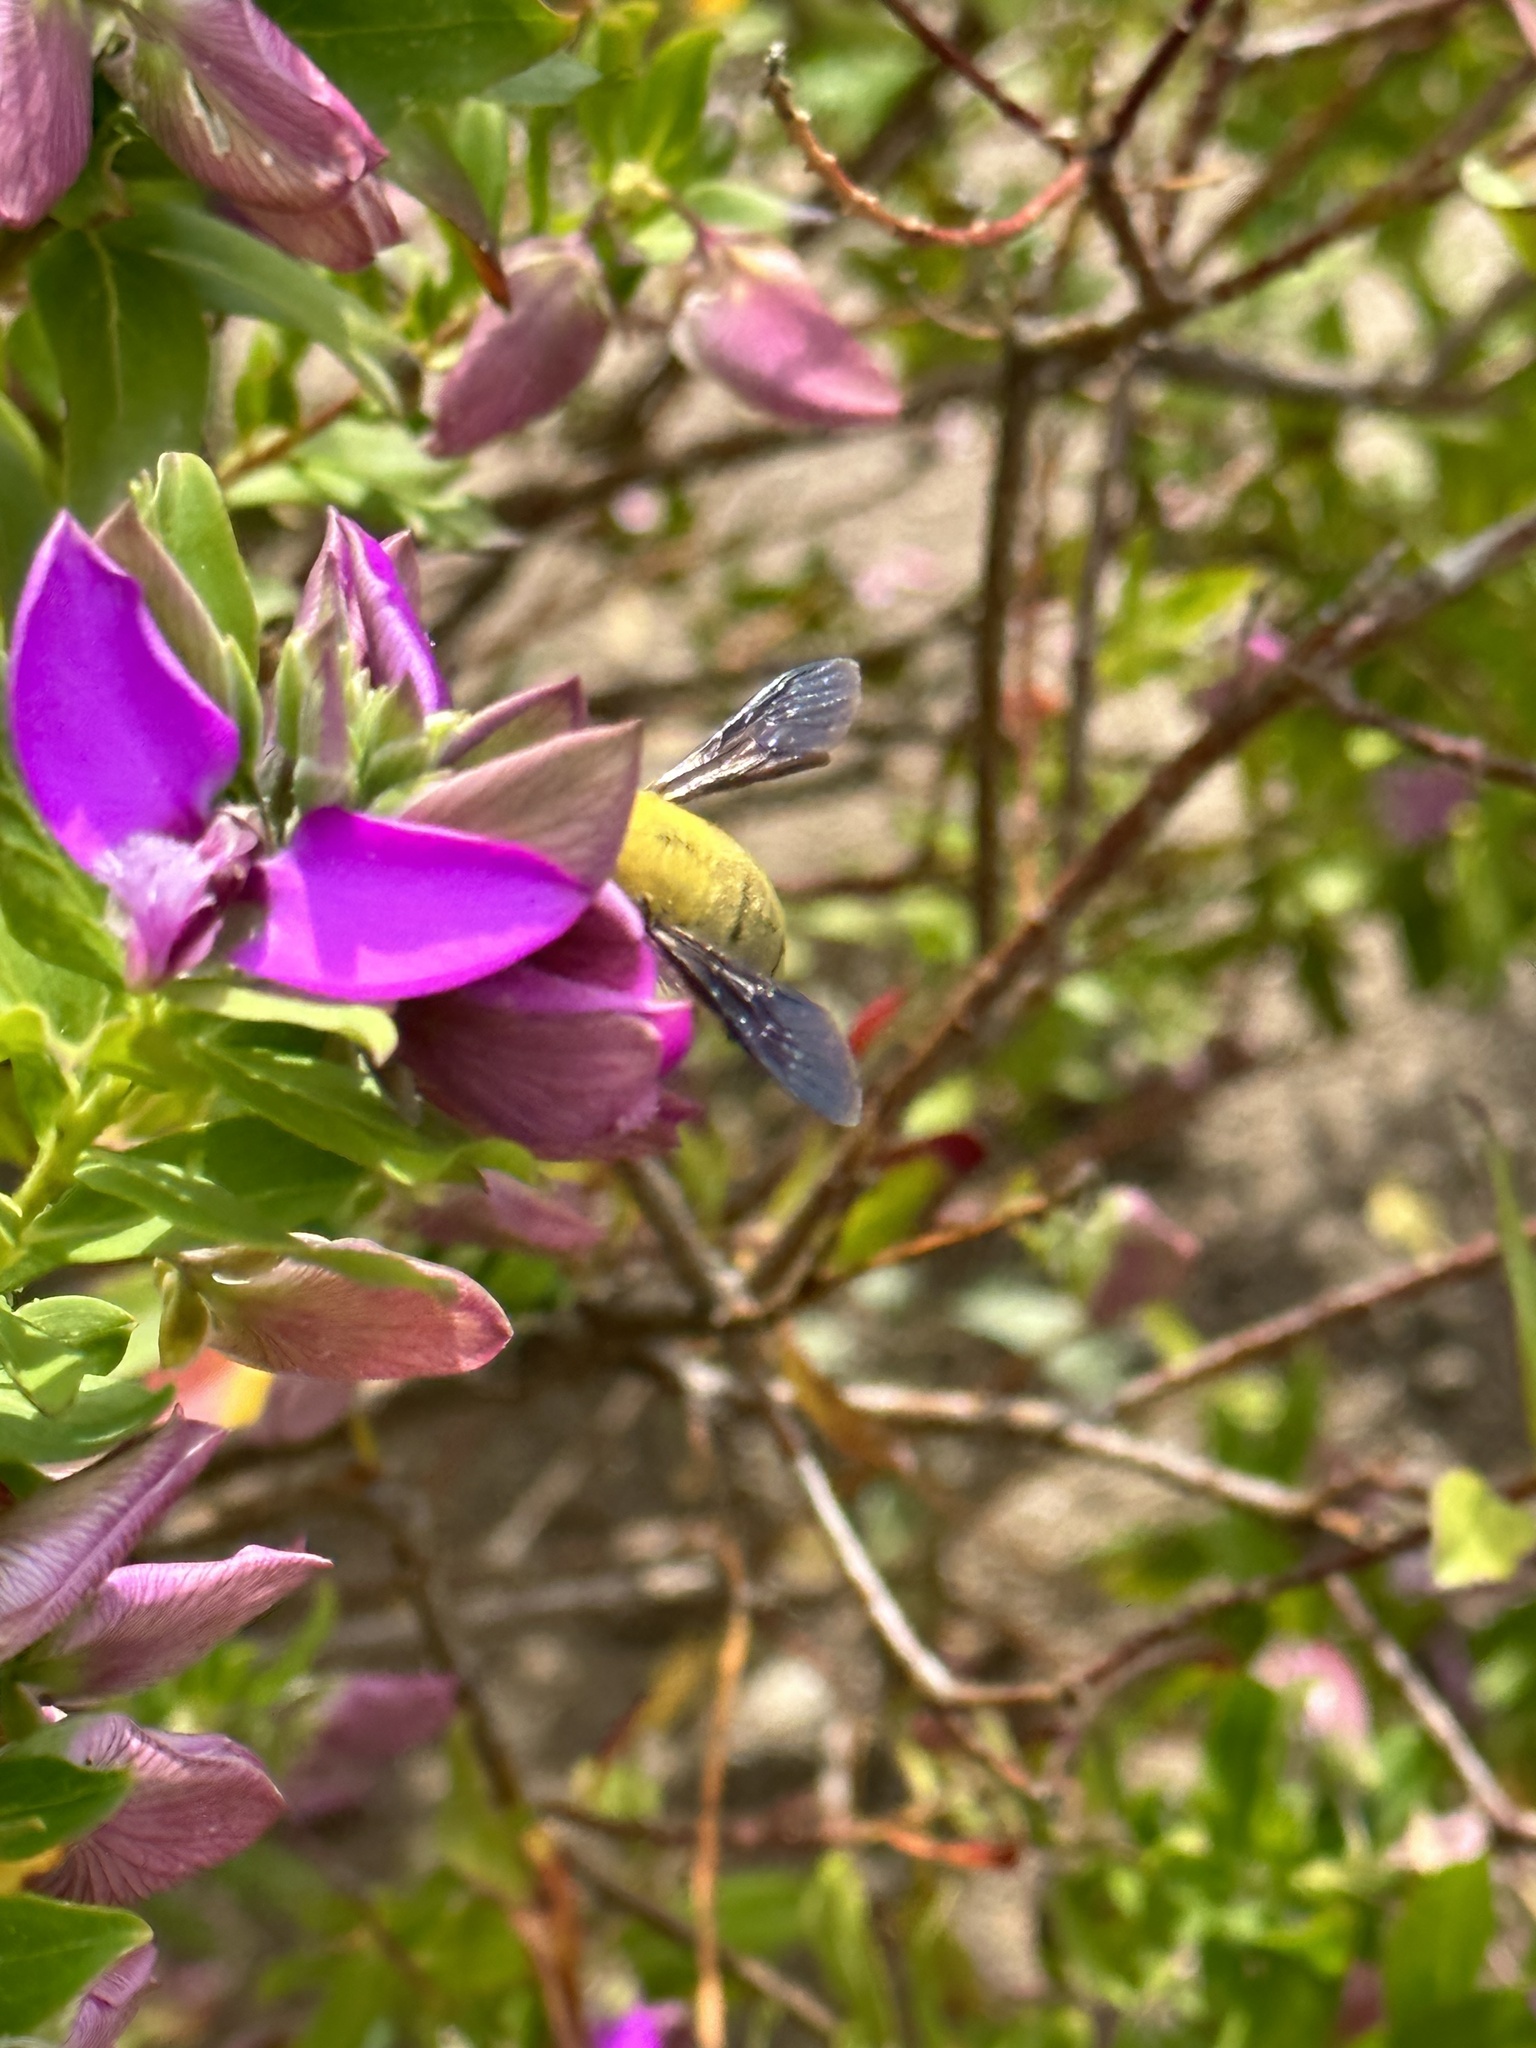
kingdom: Animalia
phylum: Arthropoda
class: Insecta
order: Hymenoptera
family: Apidae
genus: Xylocopa
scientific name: Xylocopa pubescens
